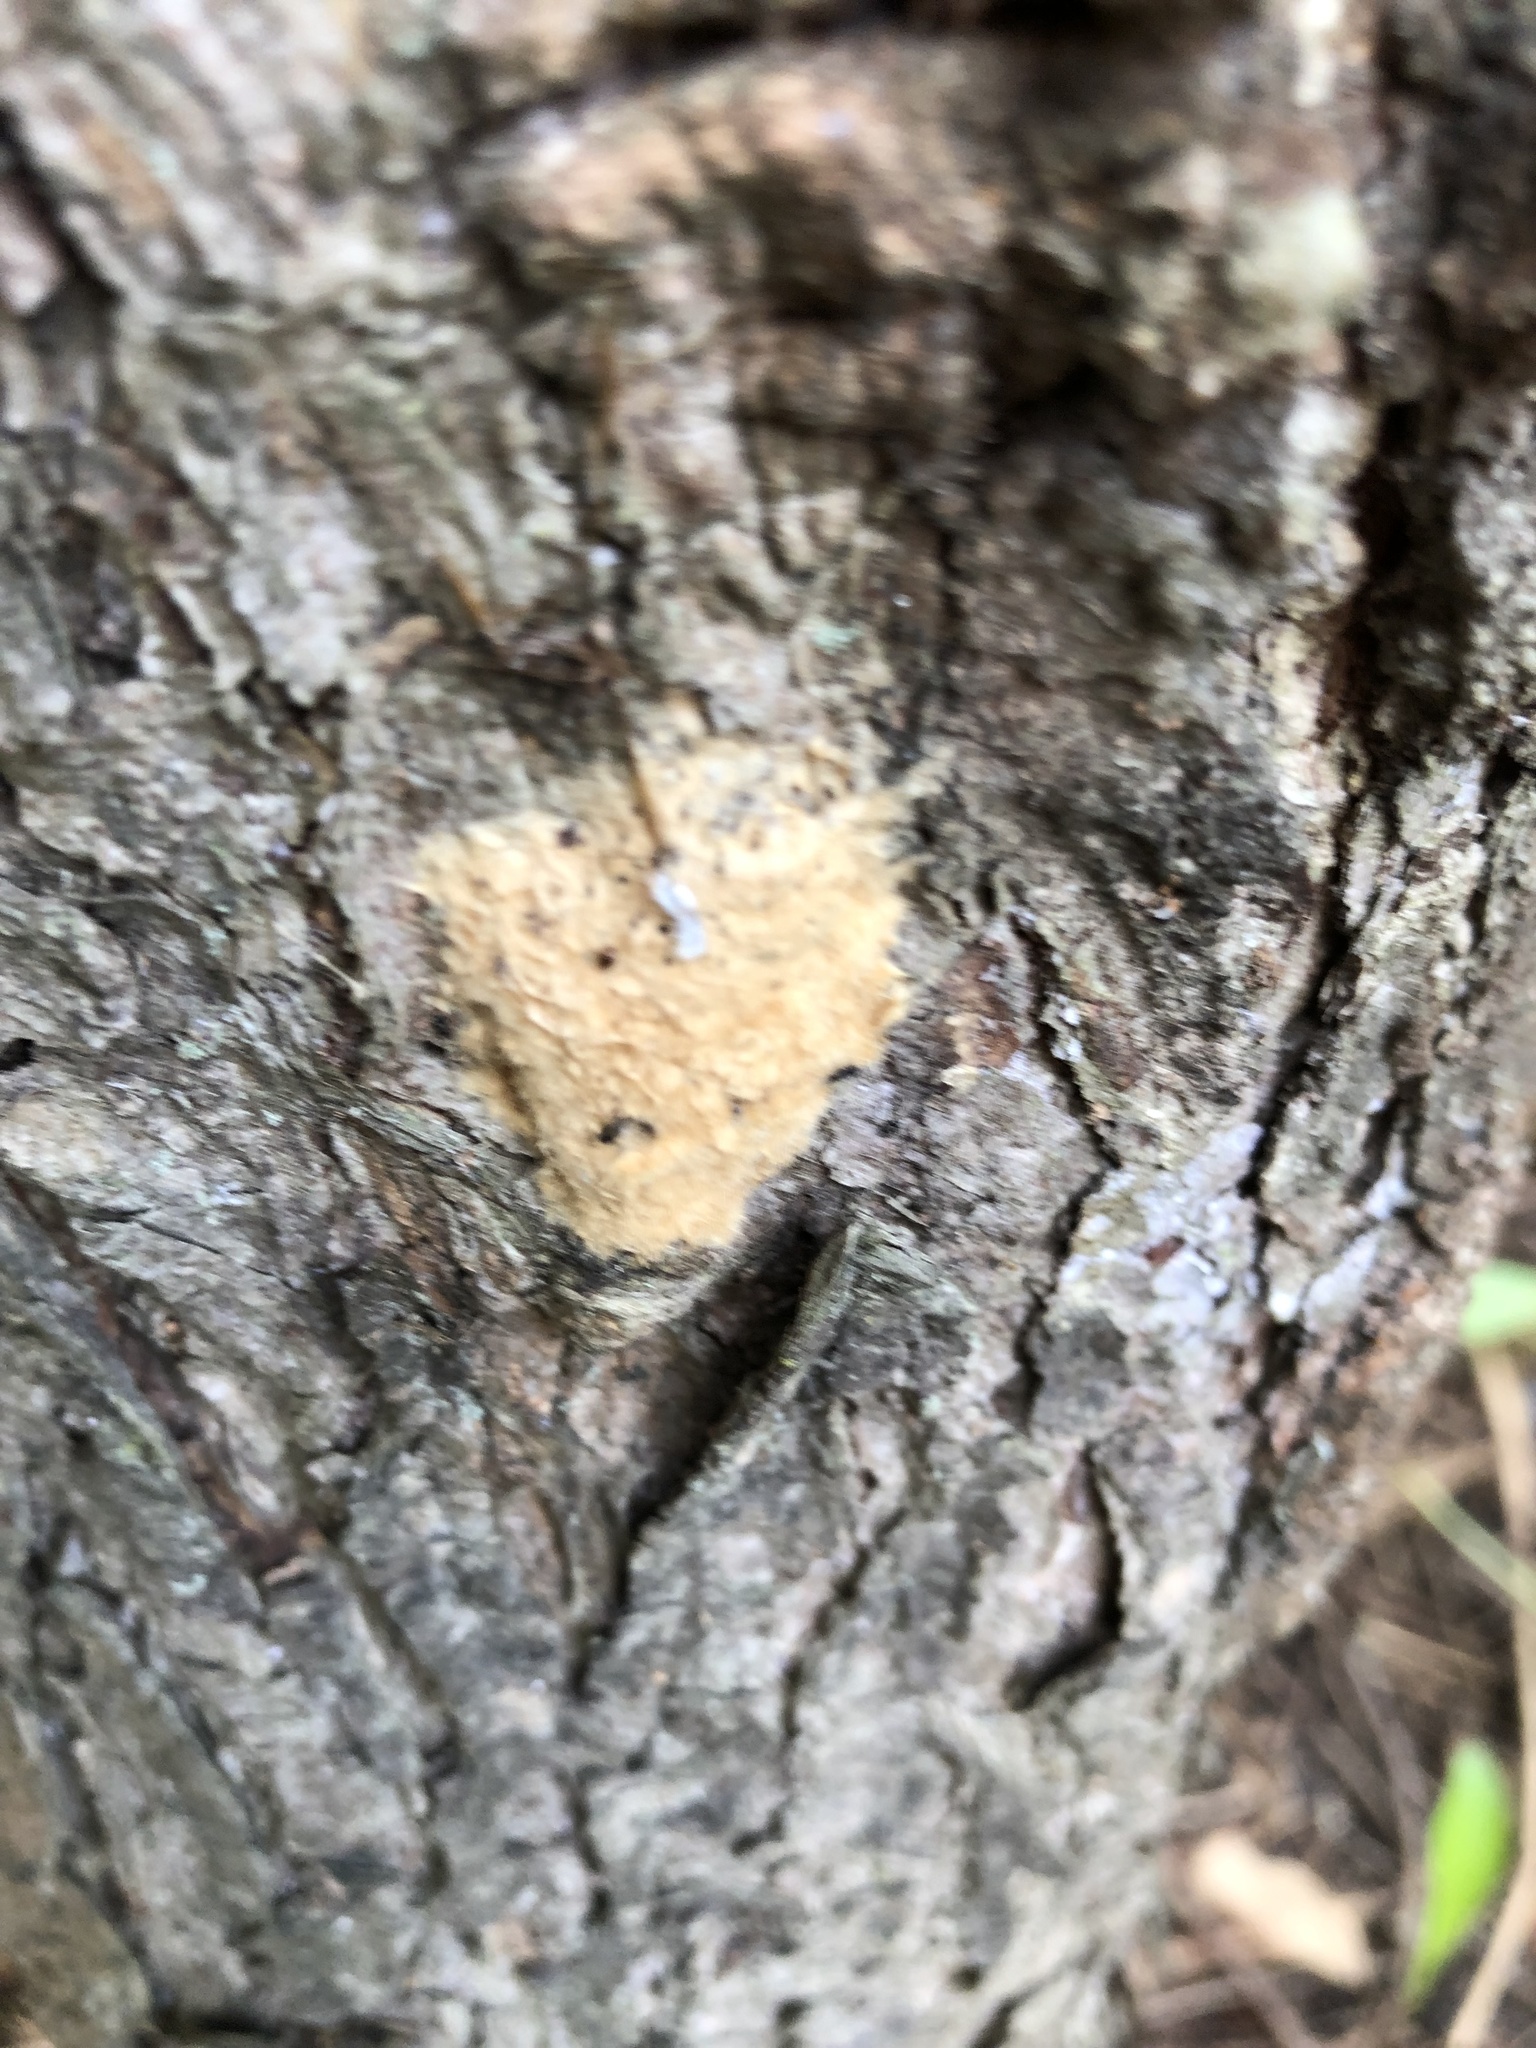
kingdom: Animalia
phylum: Arthropoda
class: Insecta
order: Lepidoptera
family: Erebidae
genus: Lymantria
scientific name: Lymantria dispar
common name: Gypsy moth
